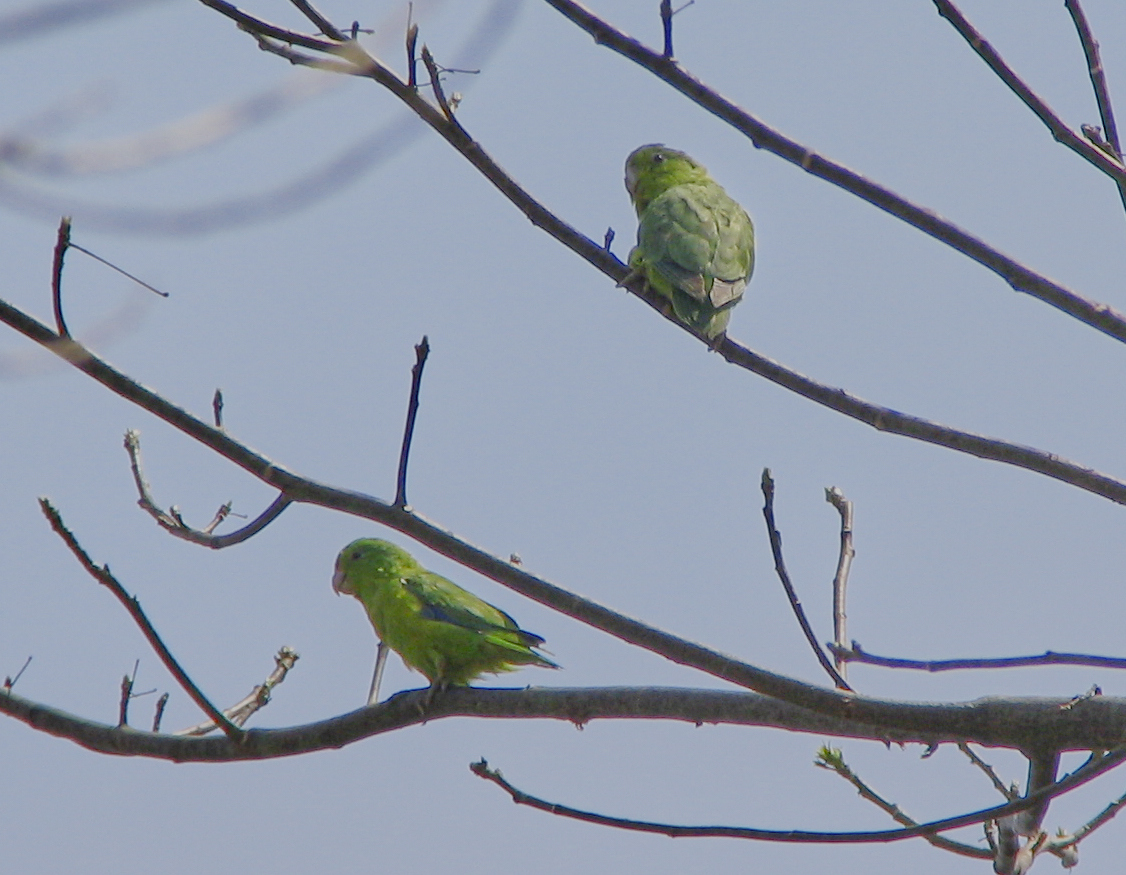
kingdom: Animalia
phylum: Chordata
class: Aves
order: Psittaciformes
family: Psittacidae
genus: Forpus
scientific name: Forpus xanthopterygius
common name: Blue-winged parrotlet
